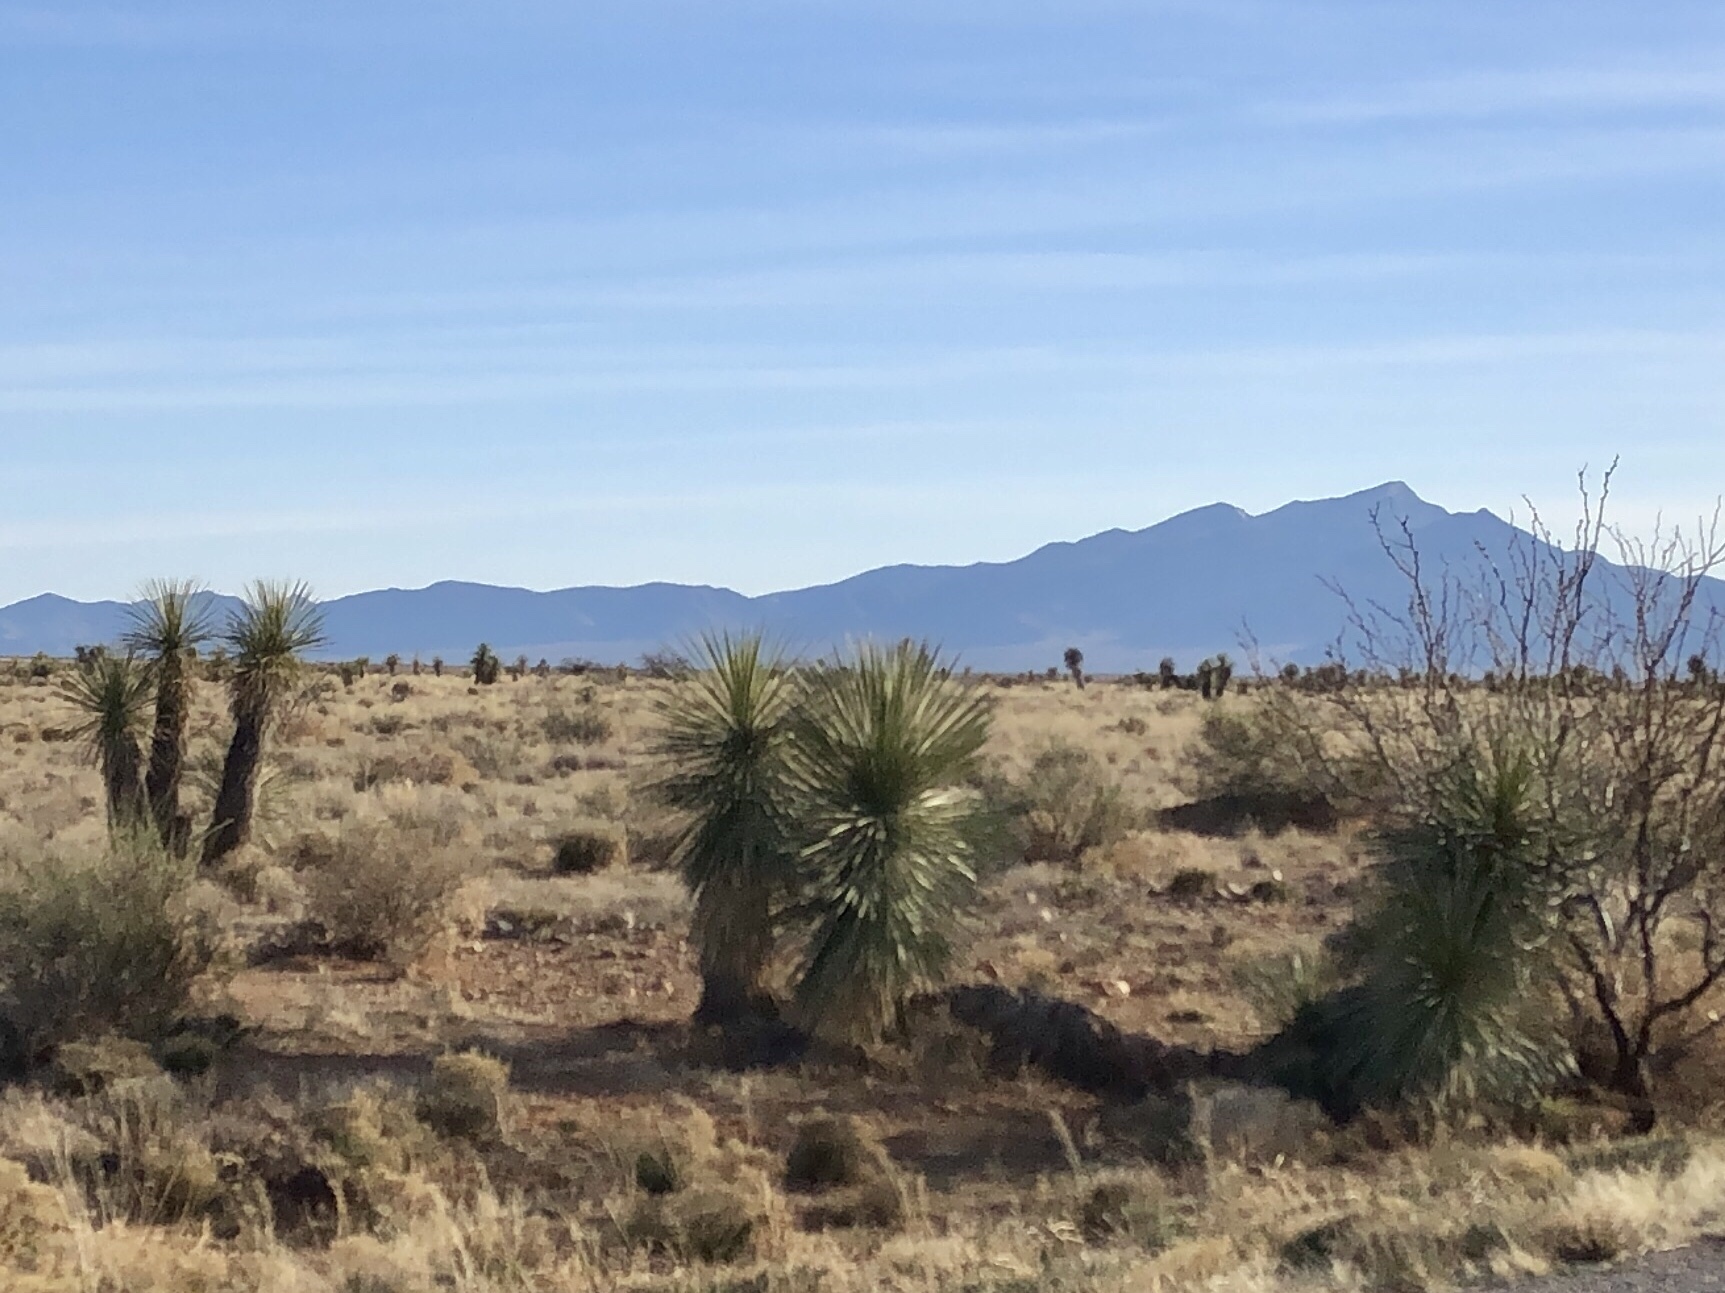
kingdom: Plantae
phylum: Tracheophyta
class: Liliopsida
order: Asparagales
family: Asparagaceae
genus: Yucca
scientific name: Yucca elata
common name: Palmella
